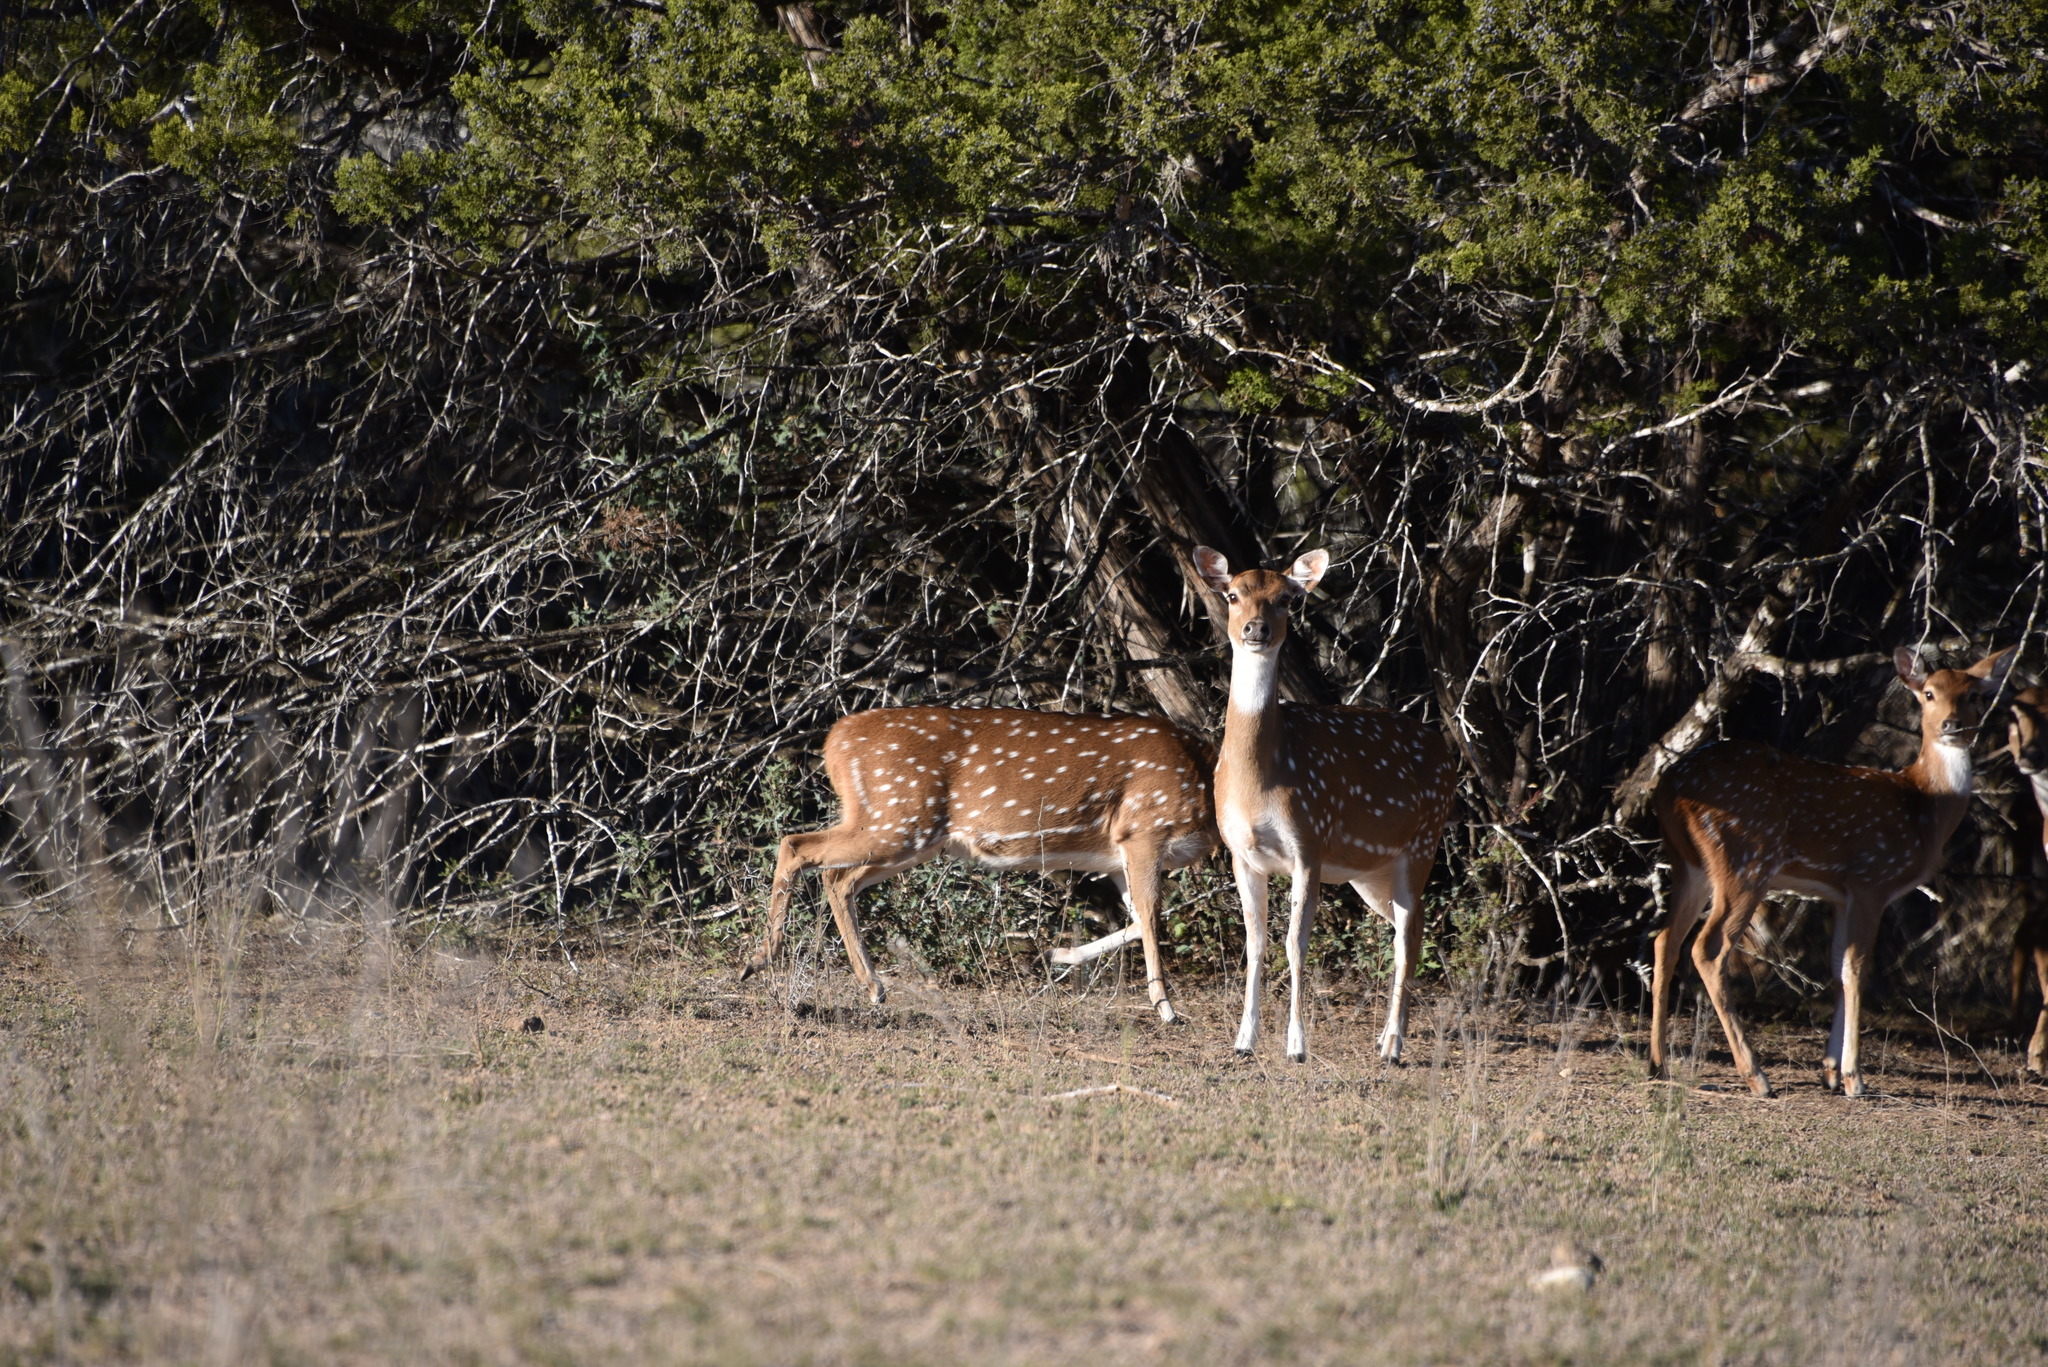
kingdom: Animalia
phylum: Chordata
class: Mammalia
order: Artiodactyla
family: Cervidae
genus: Axis
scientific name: Axis axis
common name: Chital
